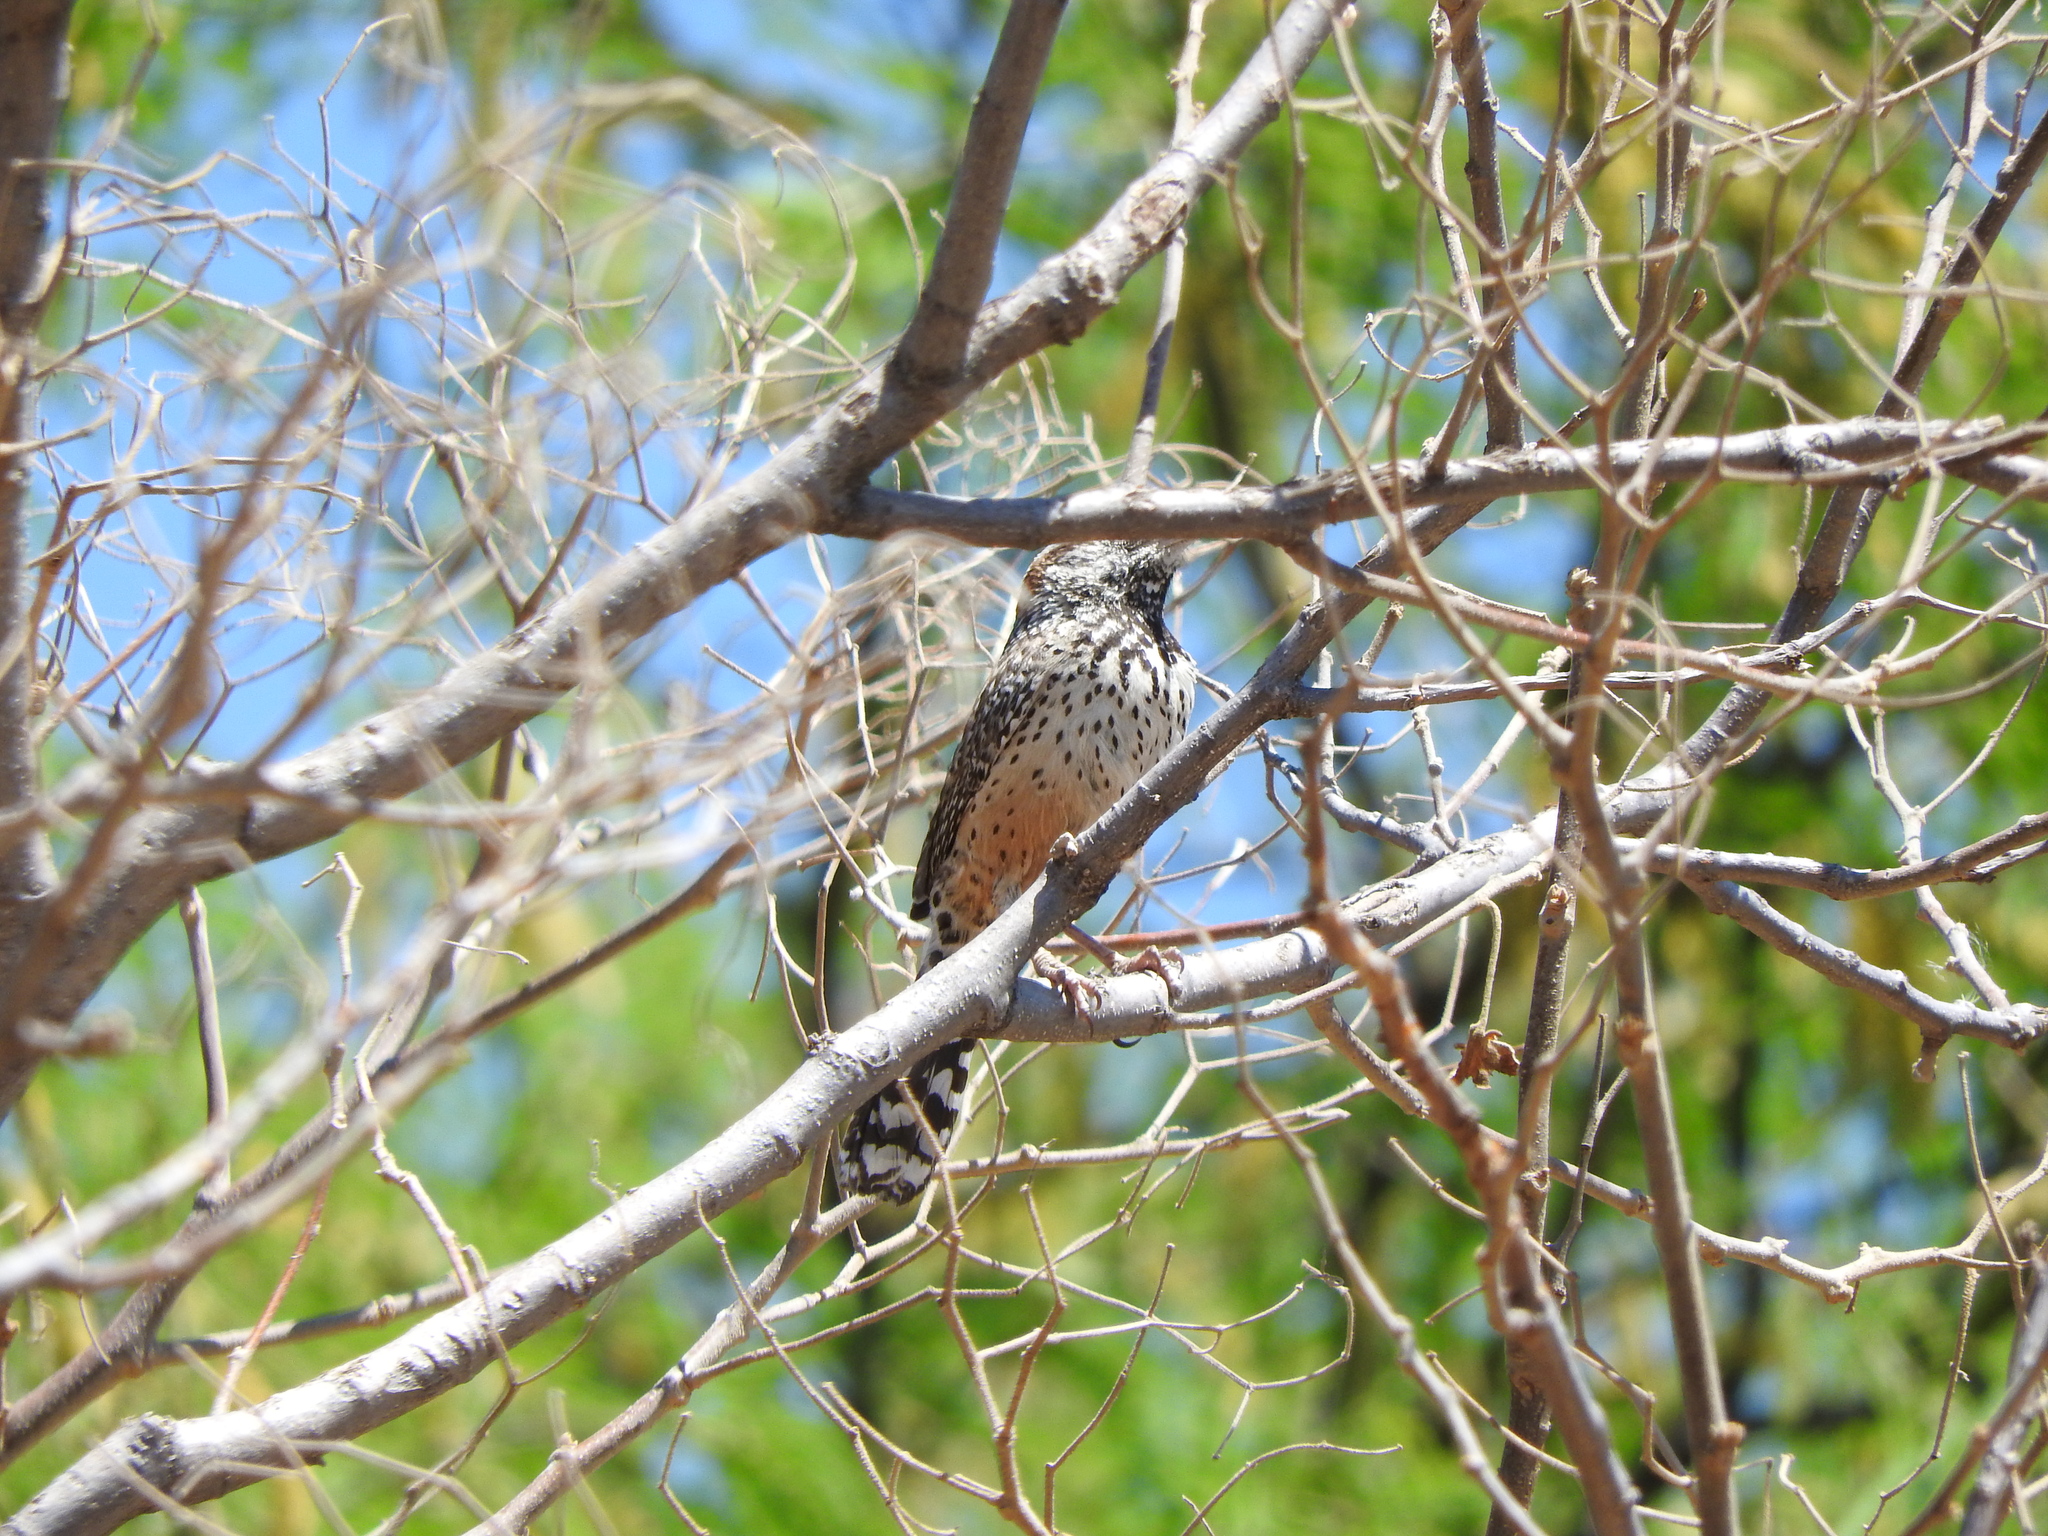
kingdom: Animalia
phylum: Chordata
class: Aves
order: Passeriformes
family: Troglodytidae
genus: Campylorhynchus
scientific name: Campylorhynchus brunneicapillus
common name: Cactus wren
